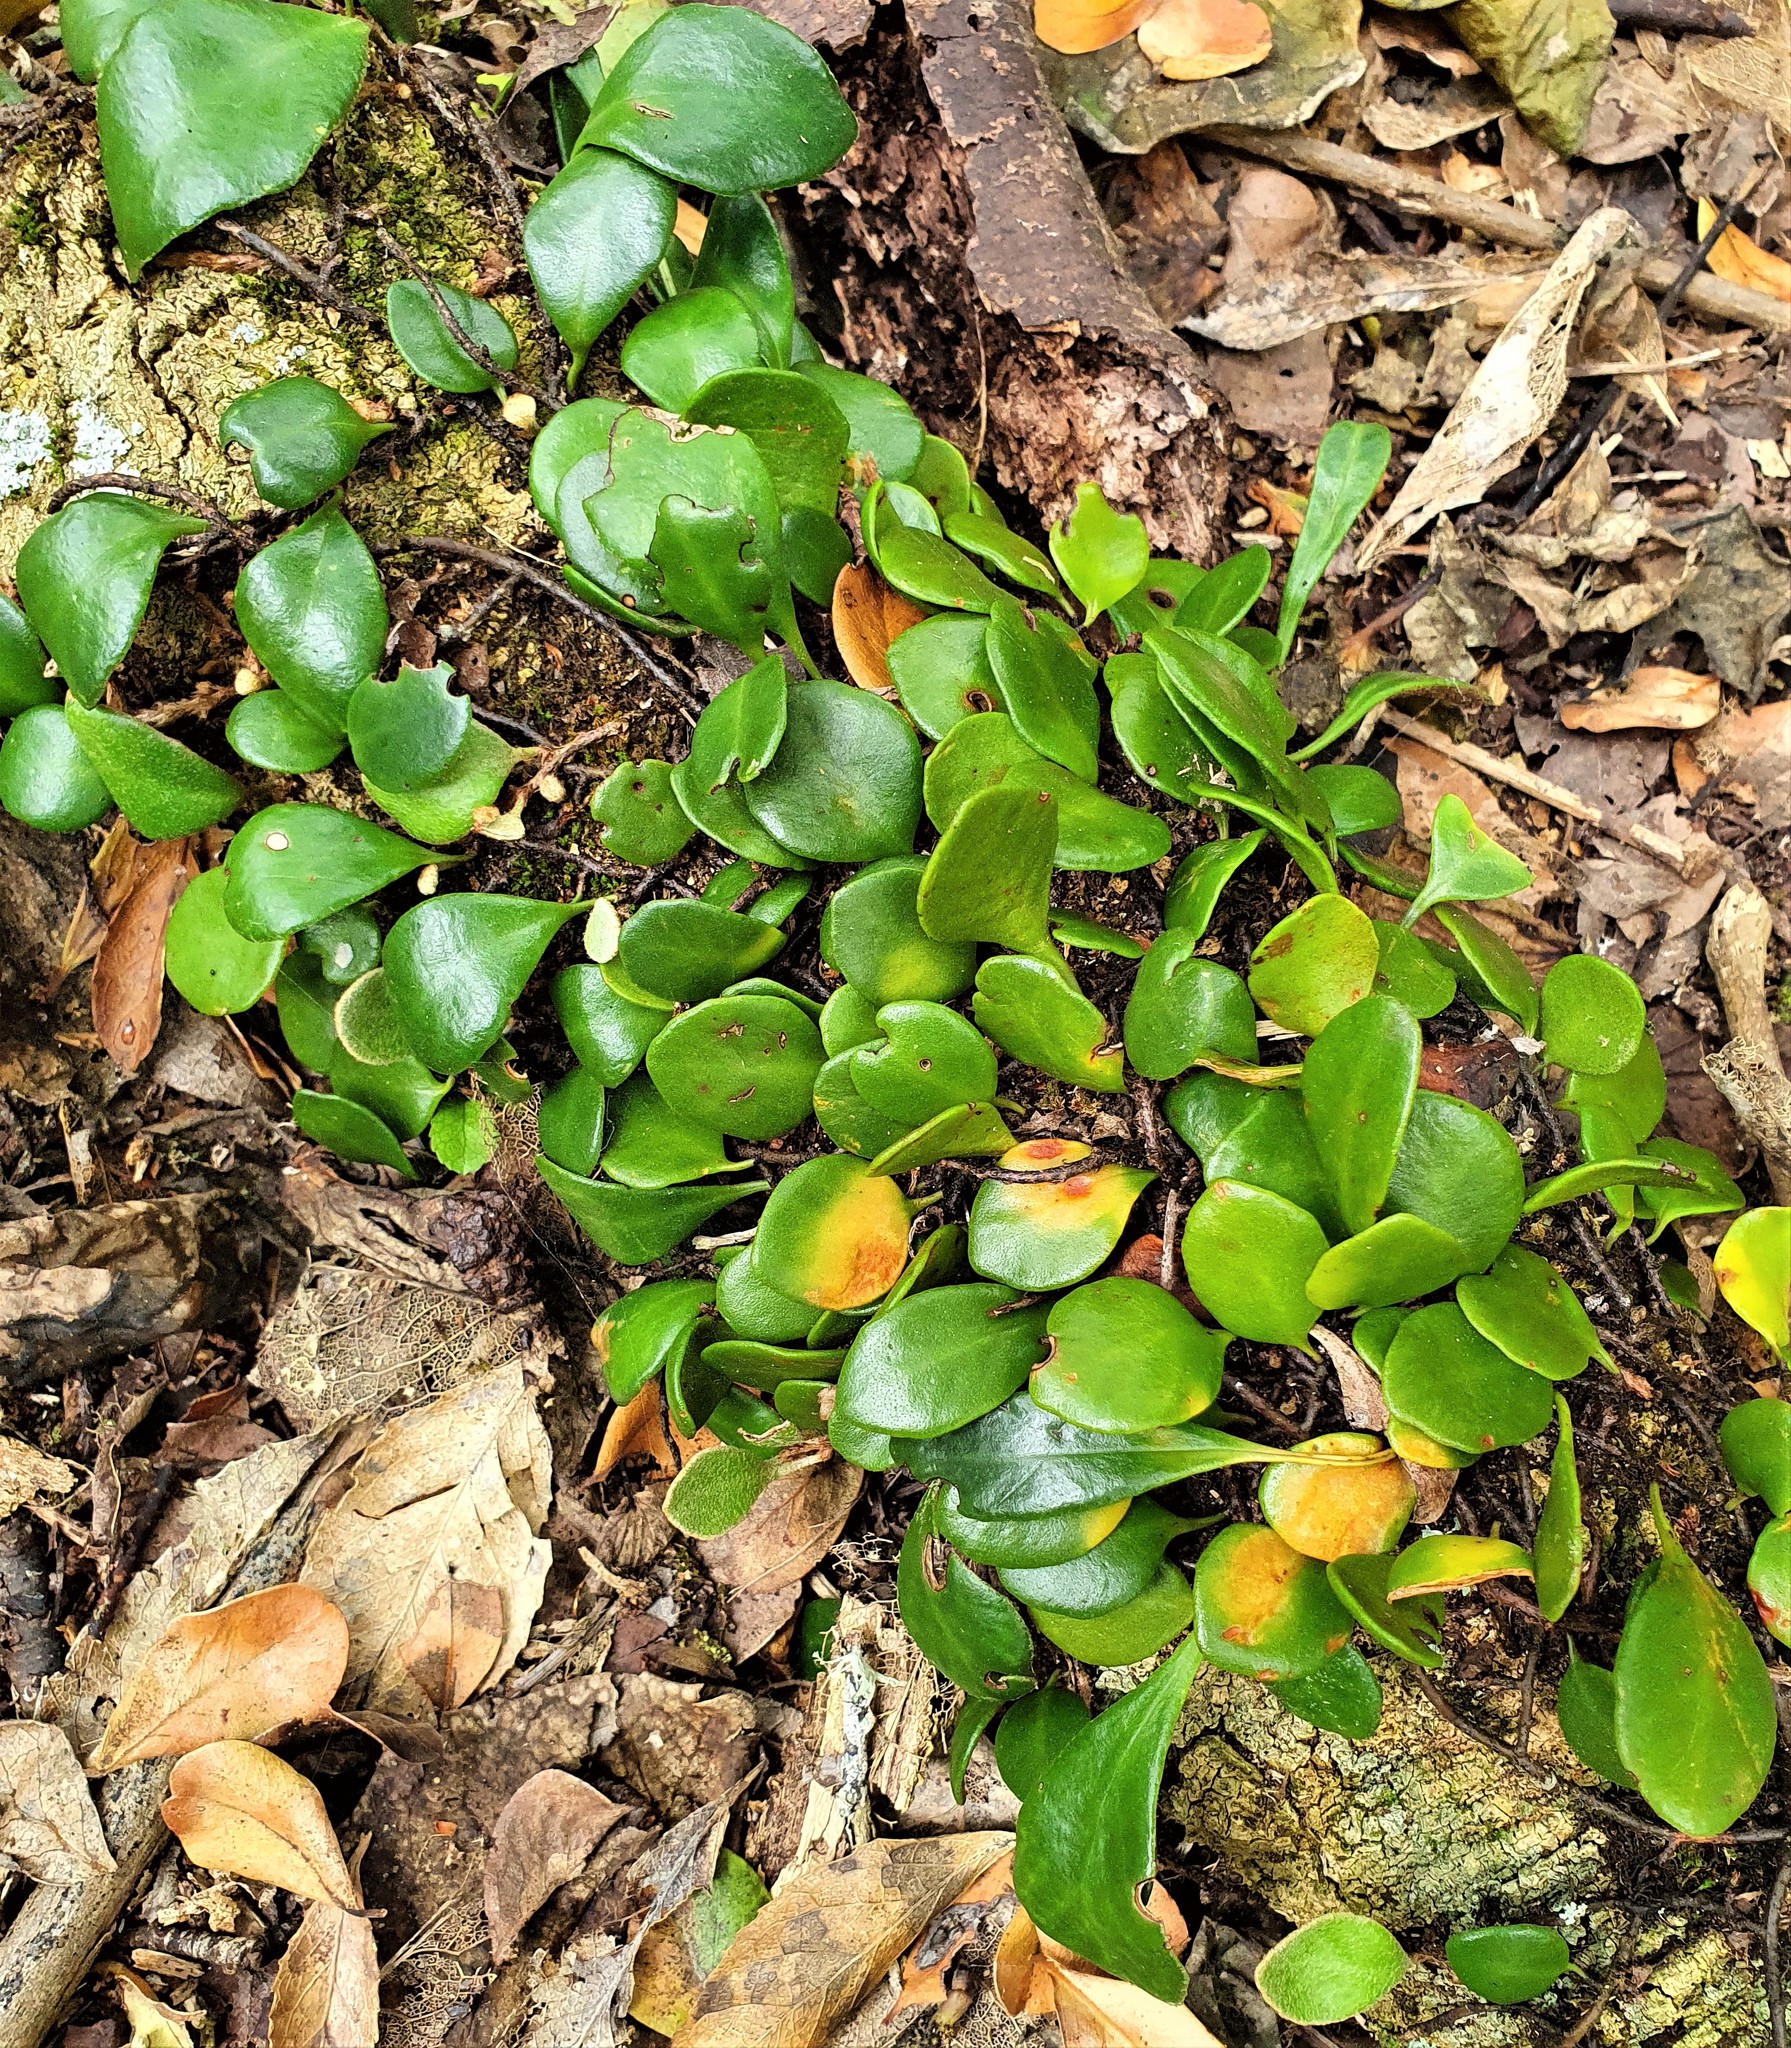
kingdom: Plantae
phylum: Tracheophyta
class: Polypodiopsida
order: Polypodiales
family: Polypodiaceae
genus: Pyrrosia
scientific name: Pyrrosia eleagnifolia
